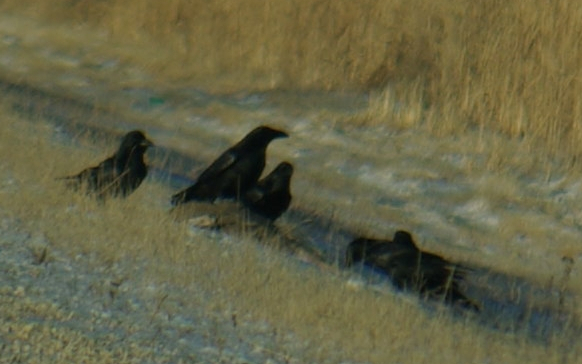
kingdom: Animalia
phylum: Chordata
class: Aves
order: Passeriformes
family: Corvidae
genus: Corvus
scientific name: Corvus corax
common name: Common raven
